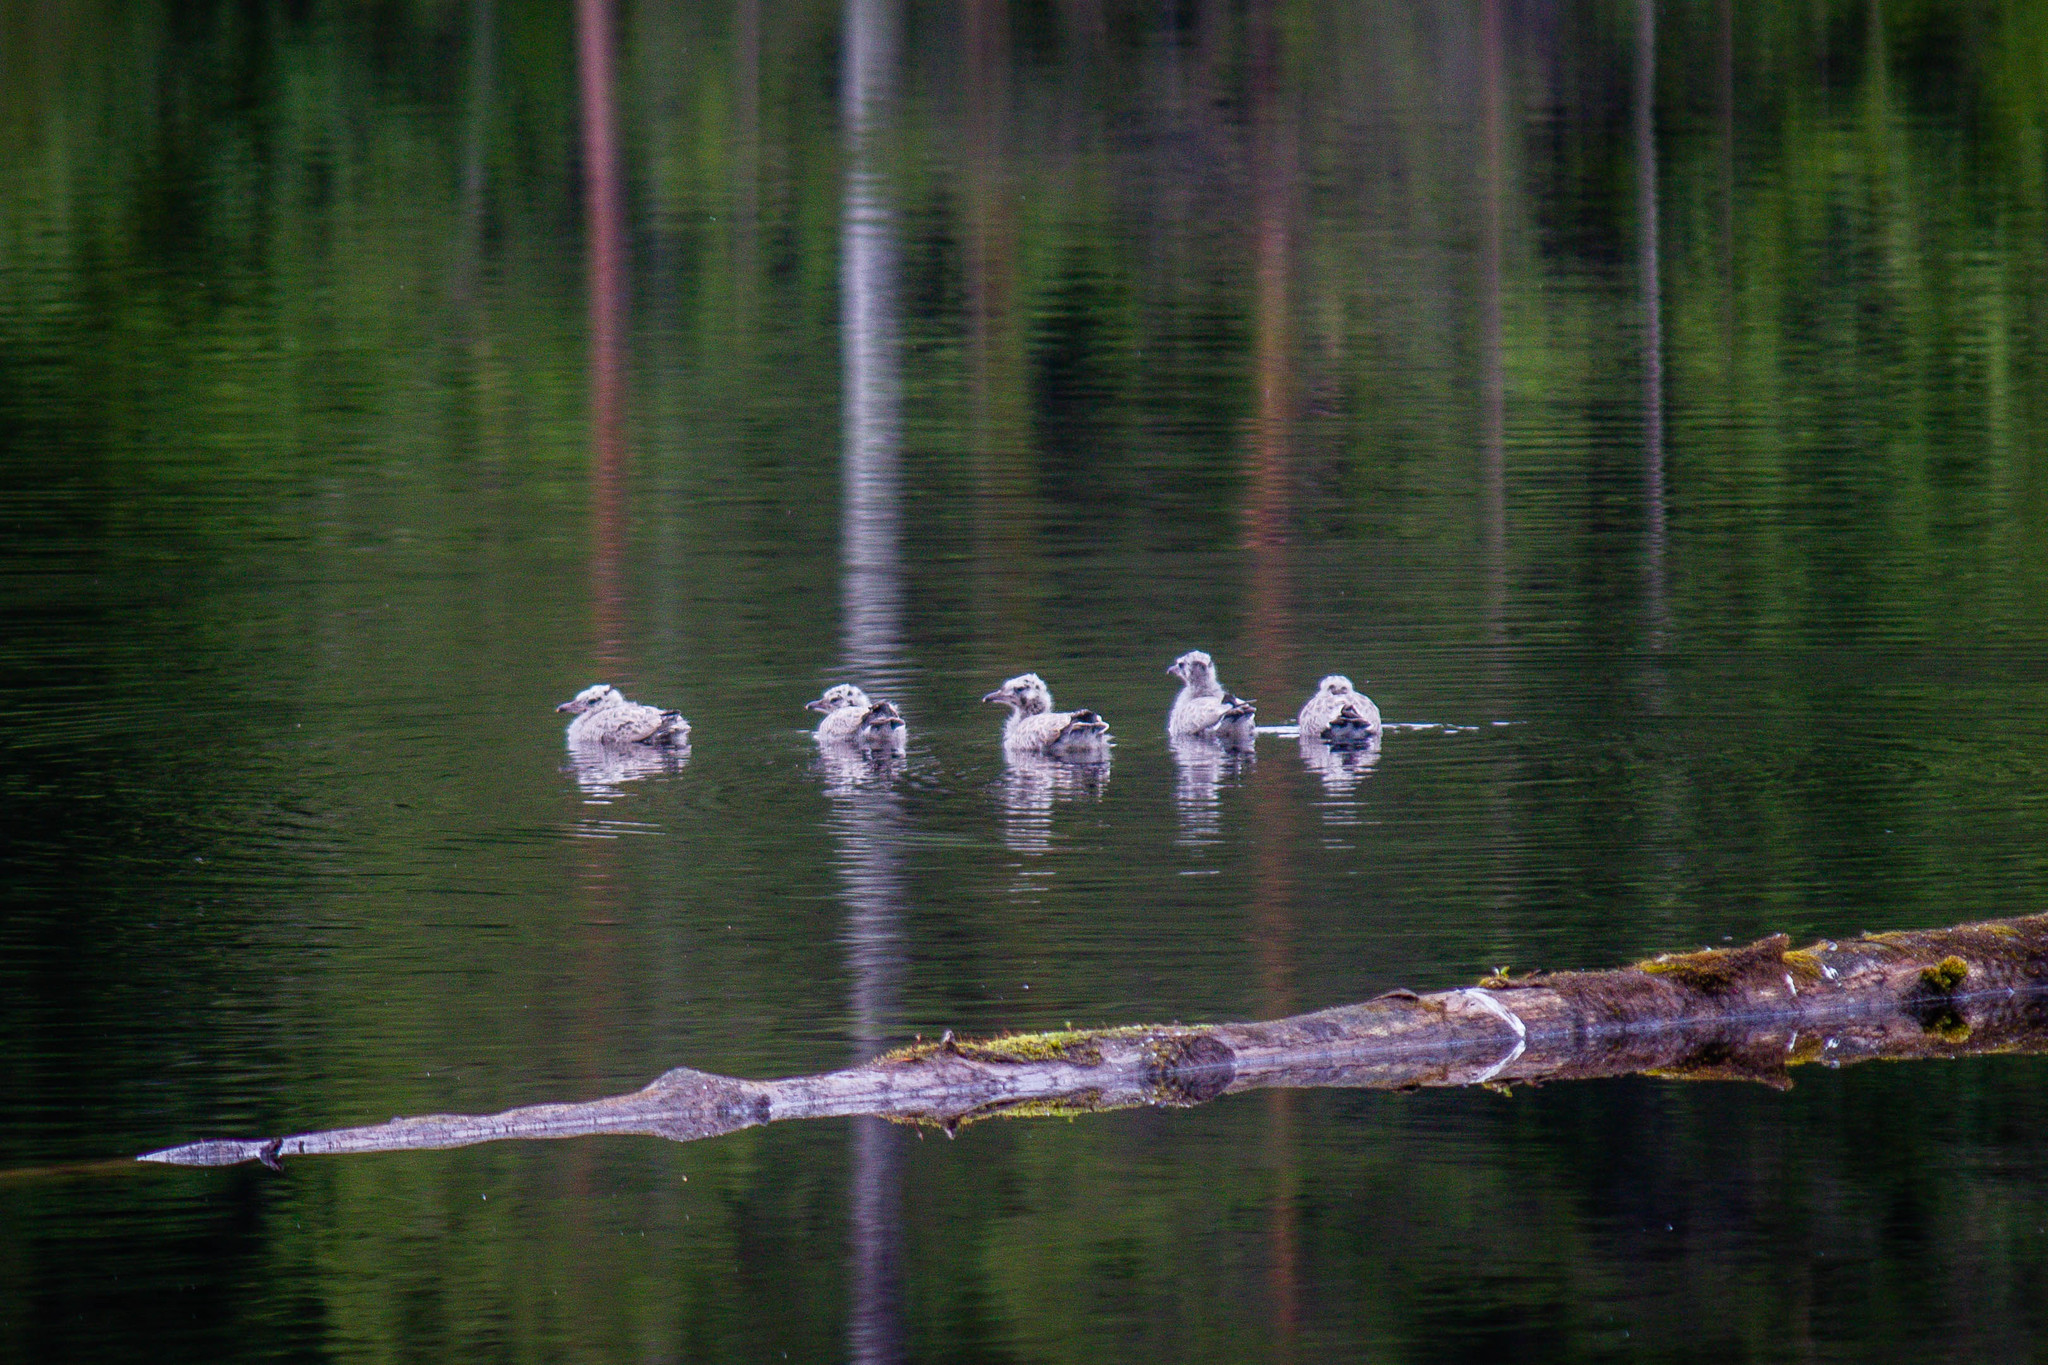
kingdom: Animalia
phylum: Chordata
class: Aves
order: Charadriiformes
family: Laridae
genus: Larus
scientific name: Larus canus
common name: Mew gull
